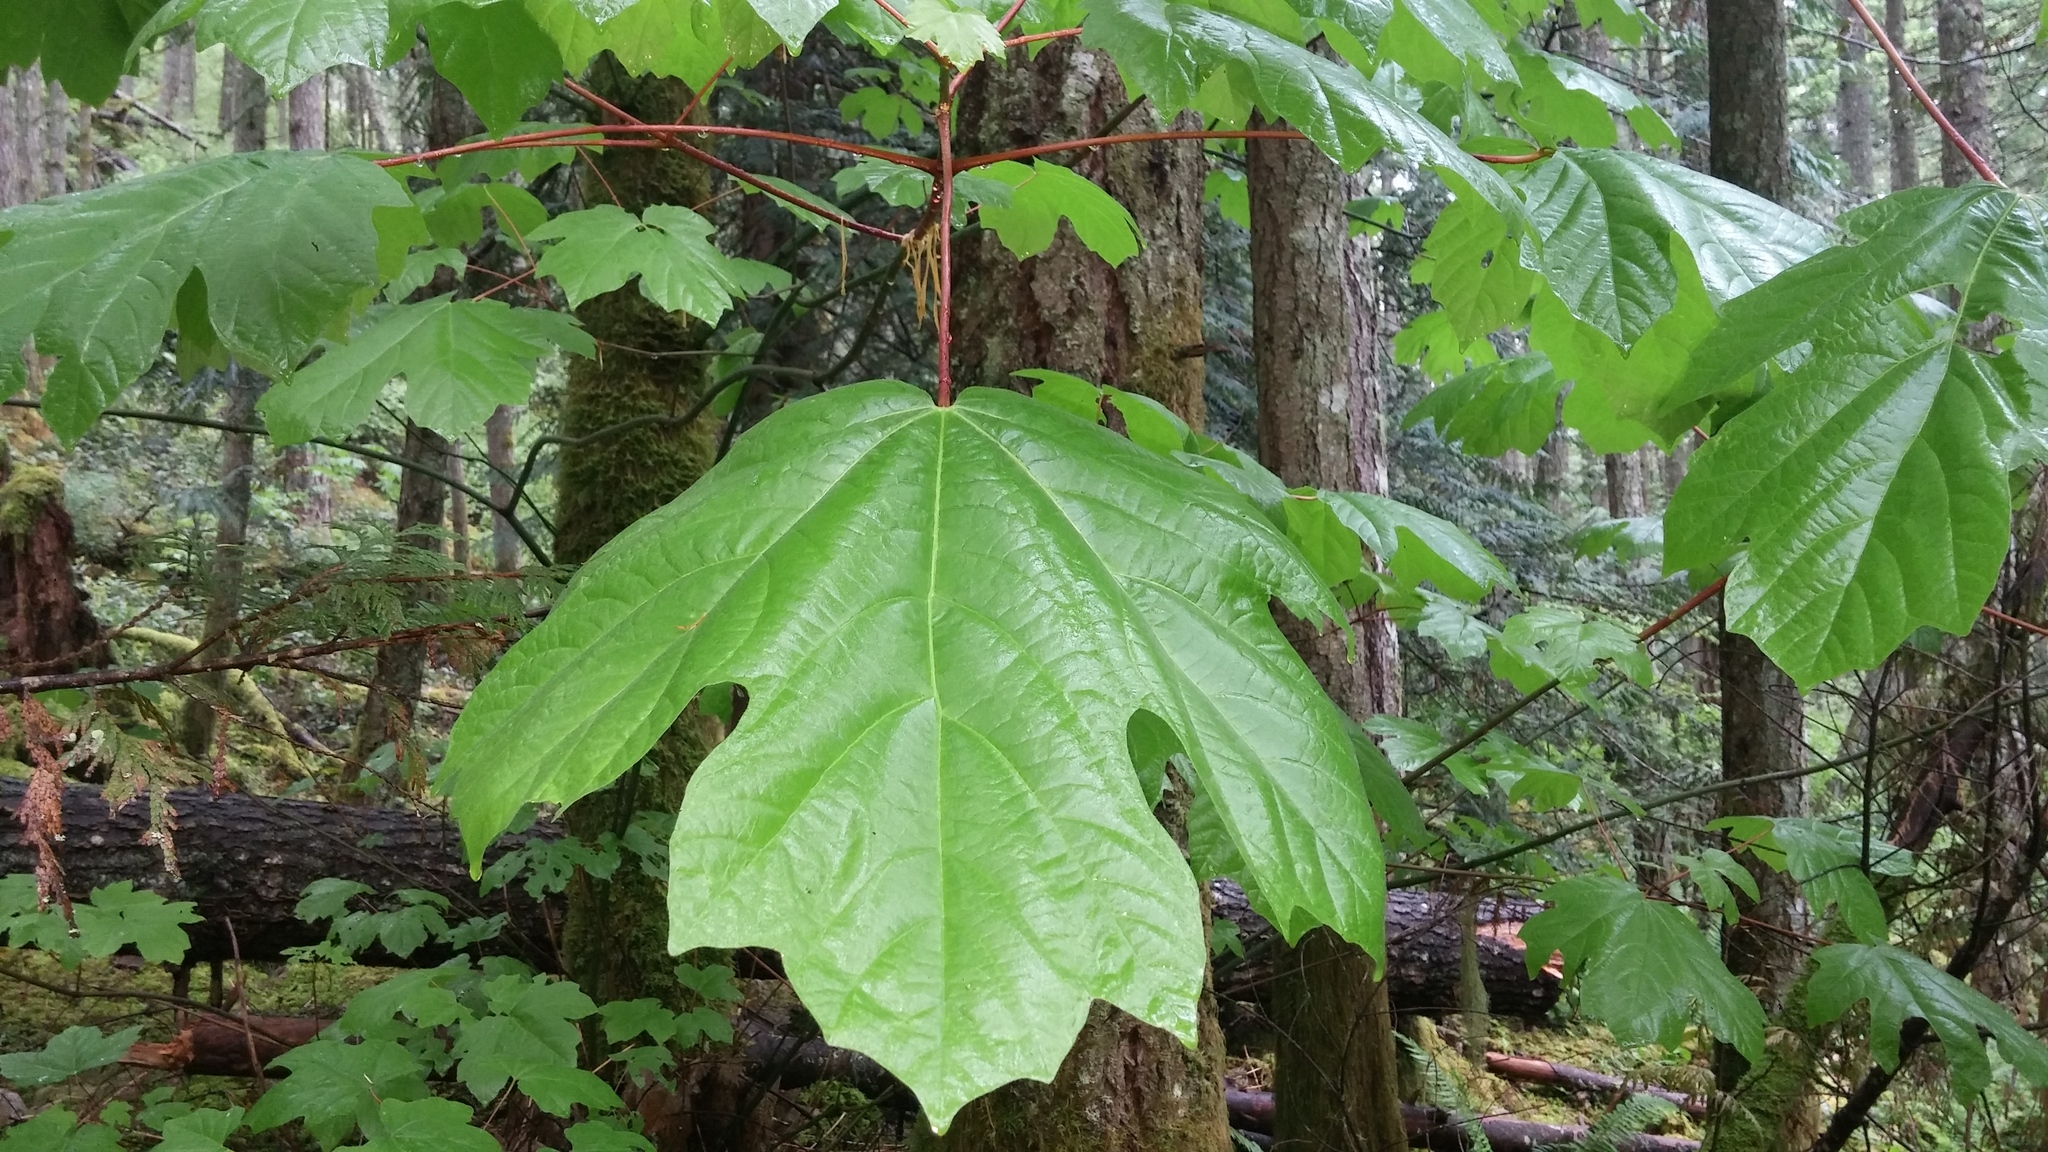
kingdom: Plantae
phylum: Tracheophyta
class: Magnoliopsida
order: Sapindales
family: Sapindaceae
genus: Acer
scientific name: Acer macrophyllum
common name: Oregon maple
